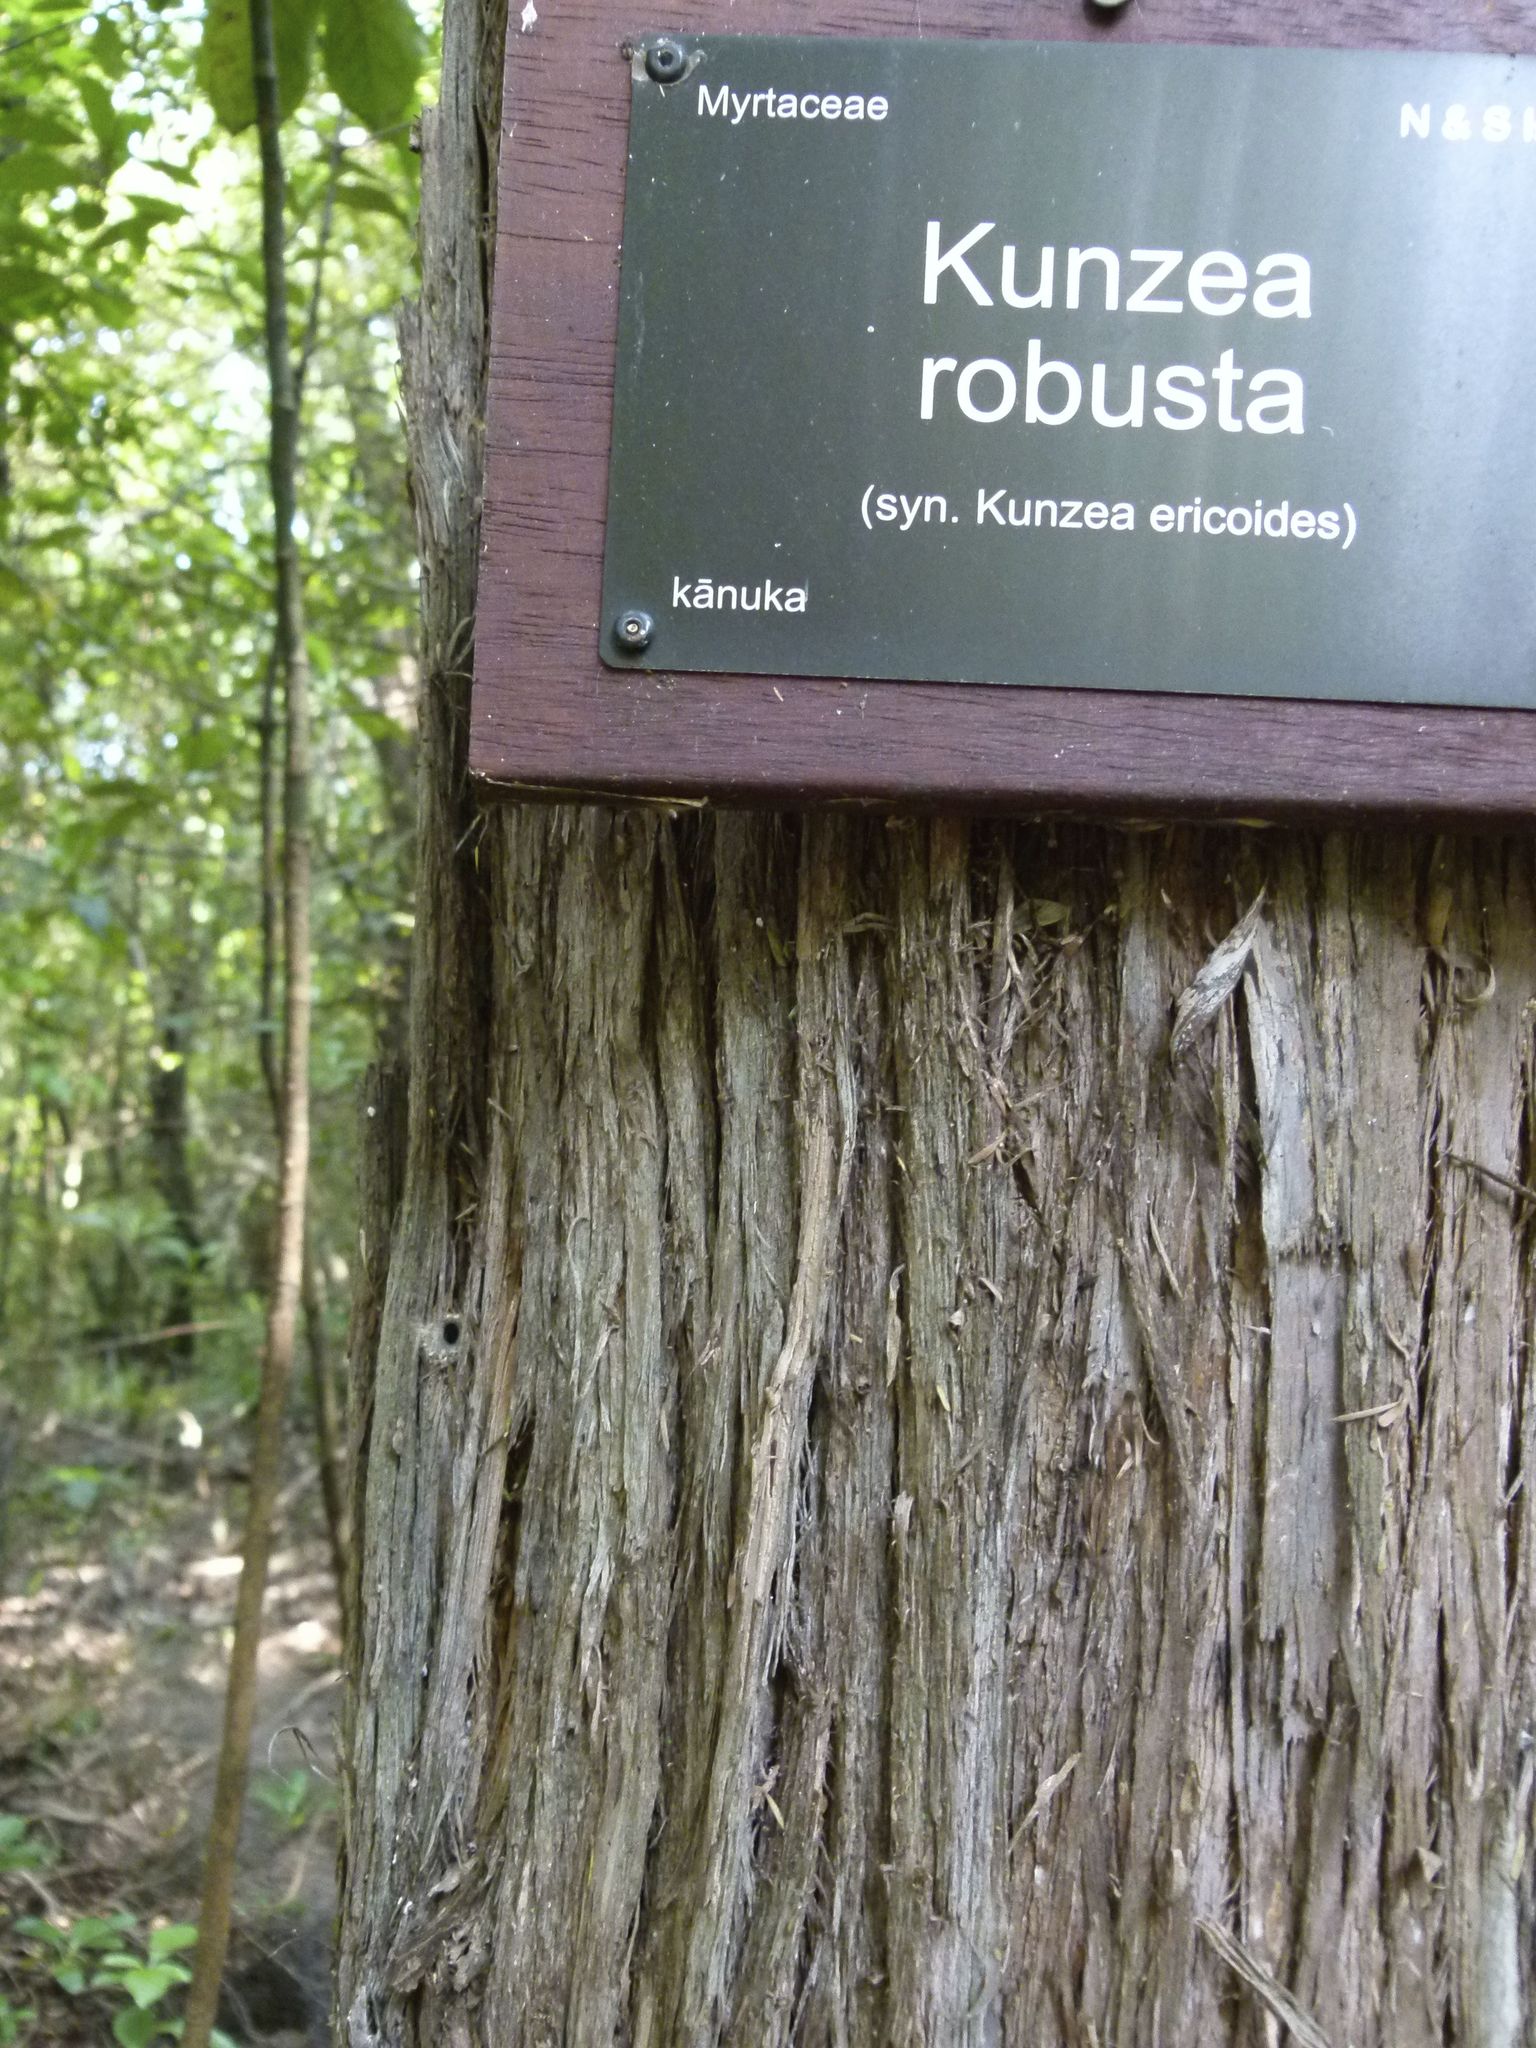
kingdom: Plantae
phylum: Tracheophyta
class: Magnoliopsida
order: Myrtales
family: Myrtaceae
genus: Kunzea
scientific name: Kunzea robusta
